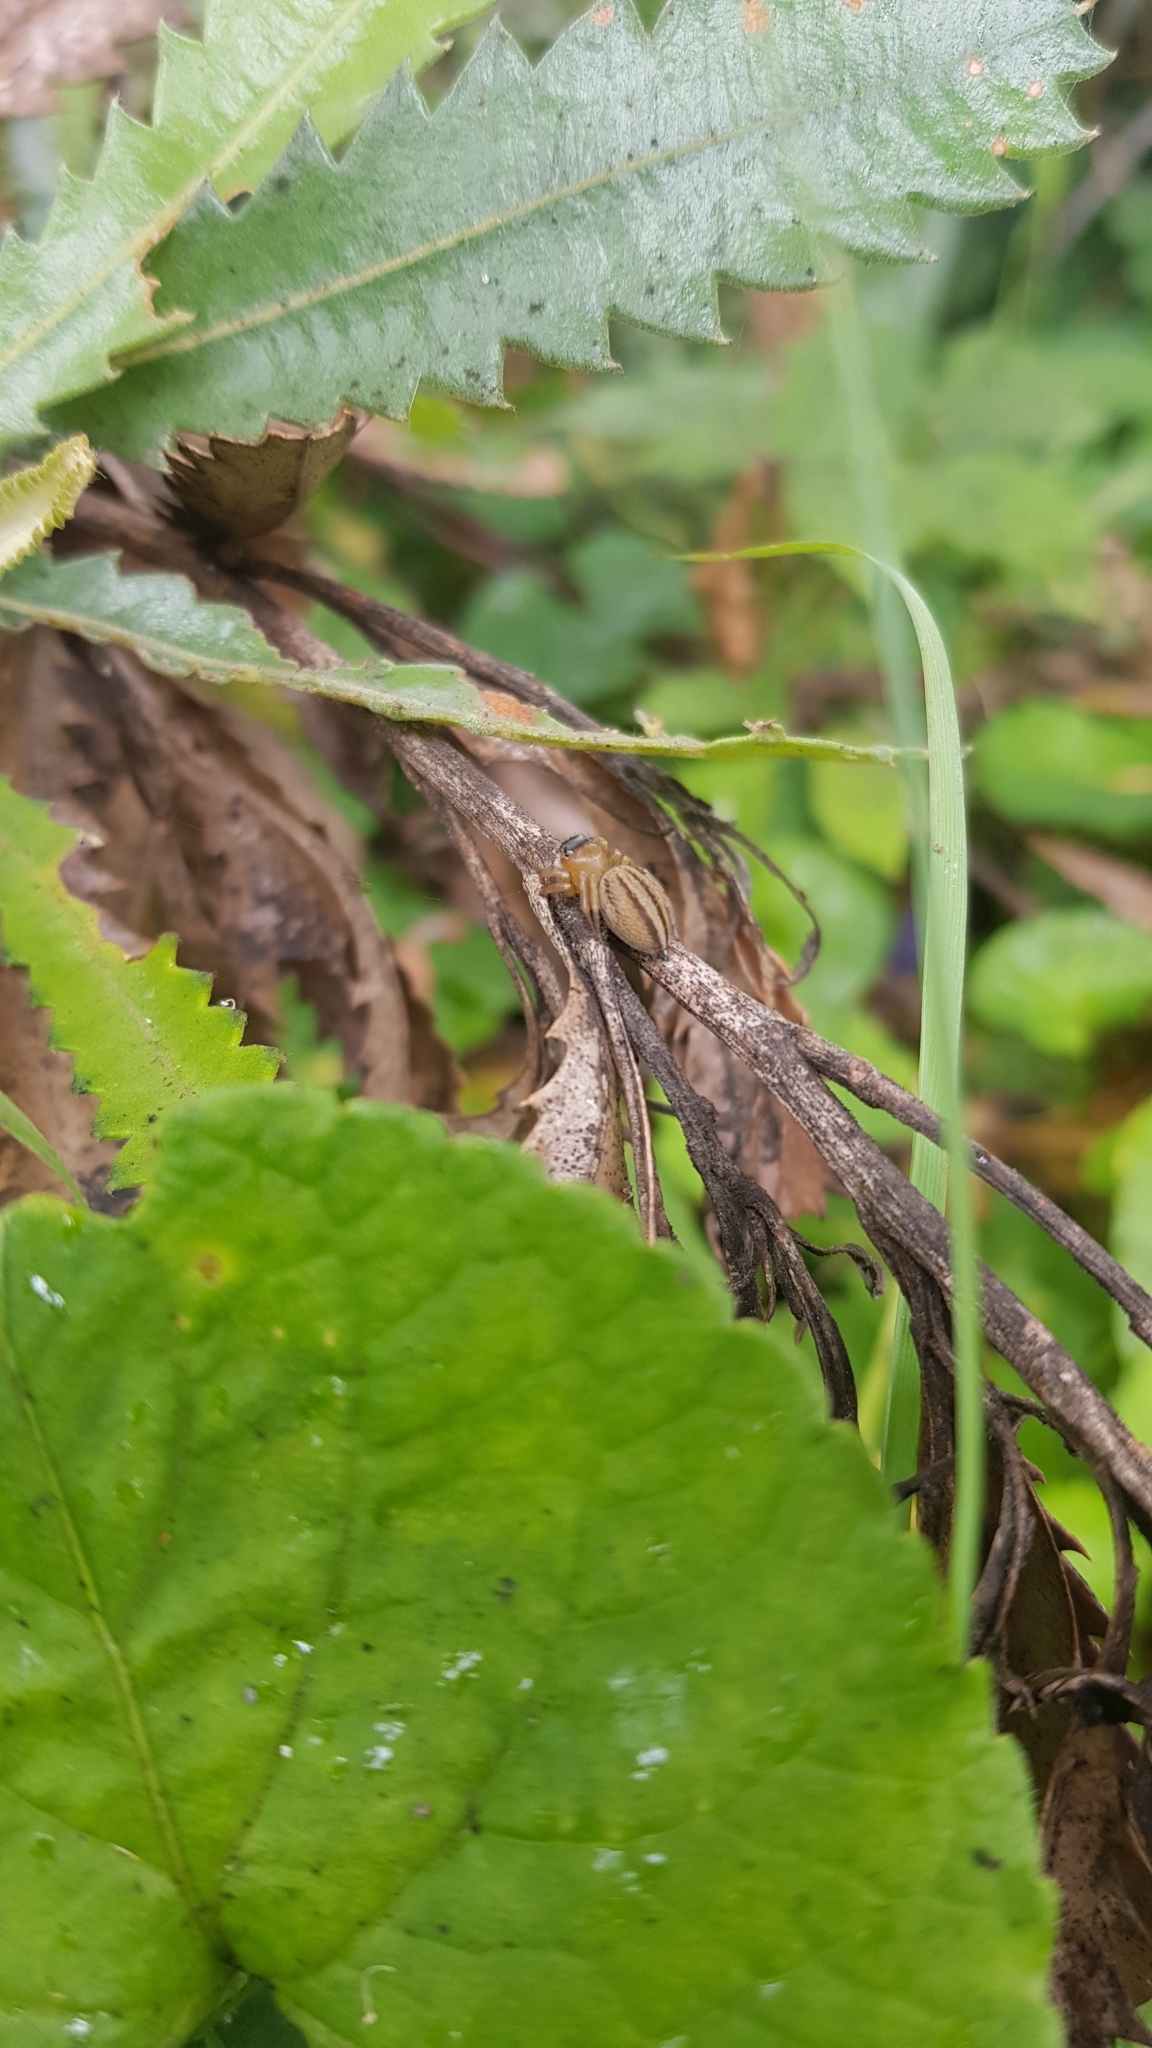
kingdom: Animalia
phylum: Arthropoda
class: Arachnida
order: Araneae
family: Salticidae
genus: Maratus
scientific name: Maratus scutulatus
